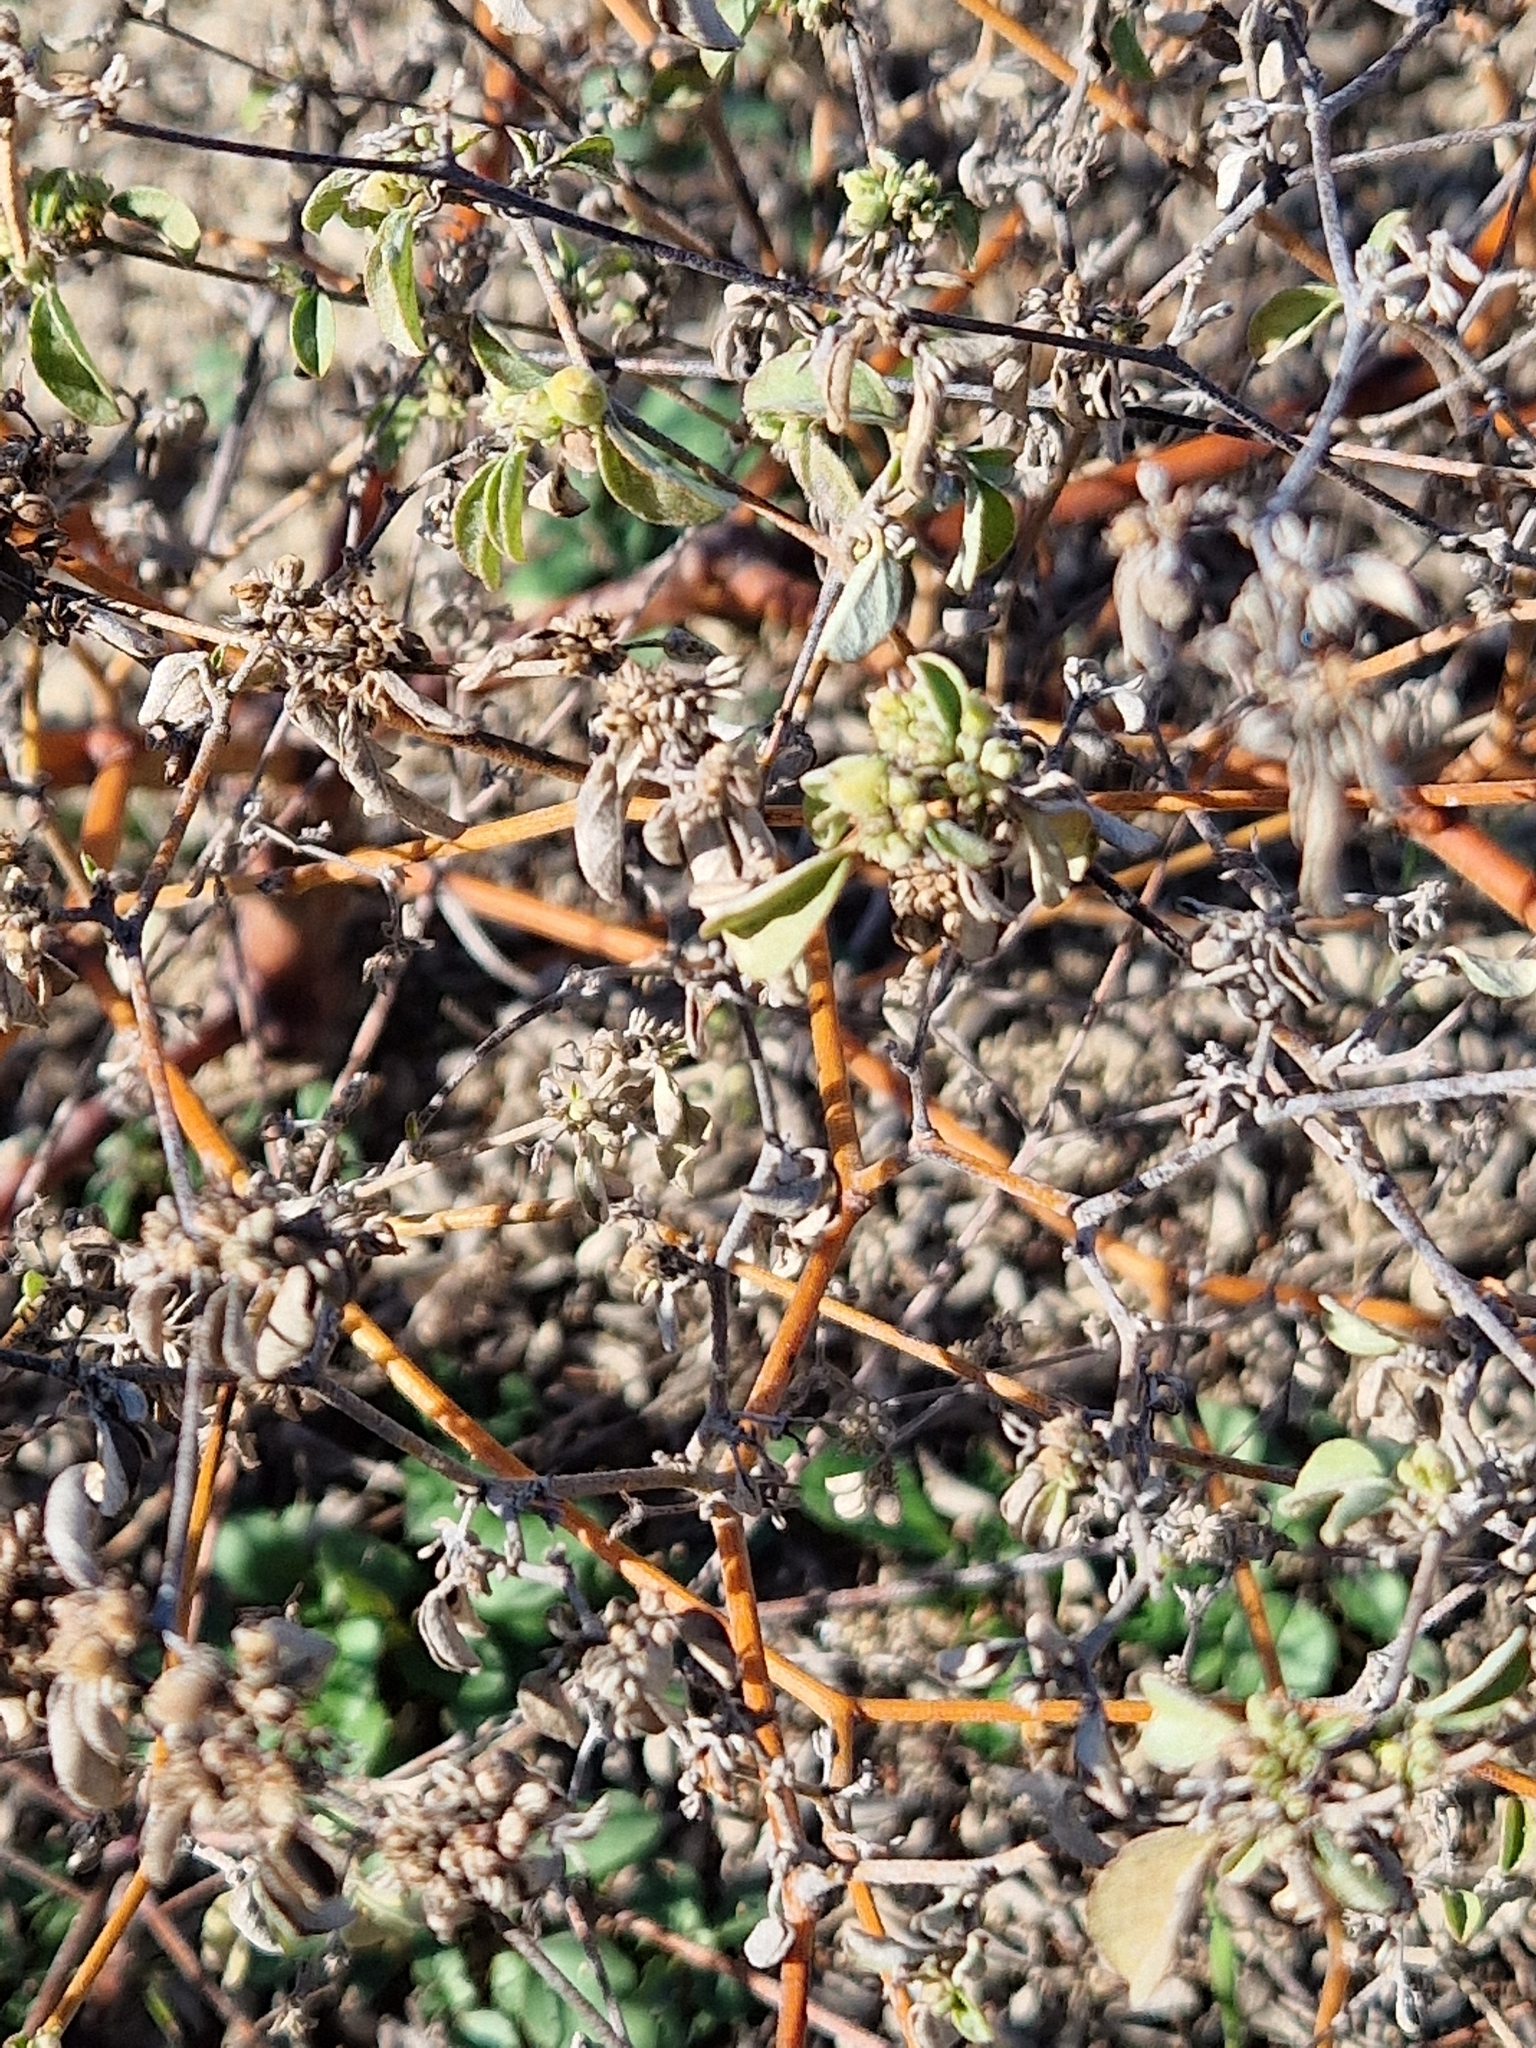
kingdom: Plantae
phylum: Tracheophyta
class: Magnoliopsida
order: Malpighiales
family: Euphorbiaceae
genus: Croton
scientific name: Croton monanthogynus
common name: One-seed croton
